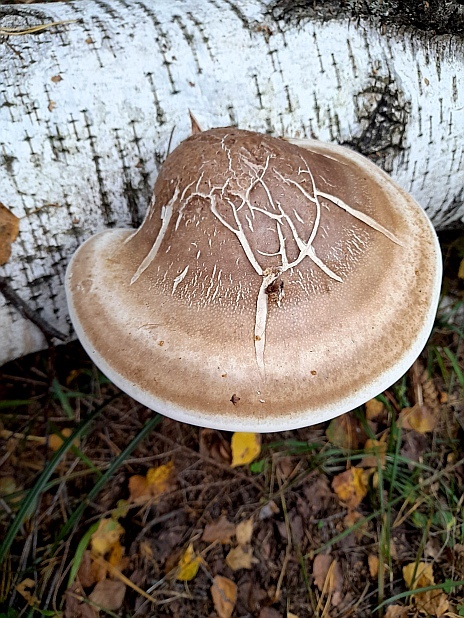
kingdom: Fungi
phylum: Basidiomycota
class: Agaricomycetes
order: Polyporales
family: Fomitopsidaceae
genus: Fomitopsis
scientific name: Fomitopsis betulina
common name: Birch polypore
